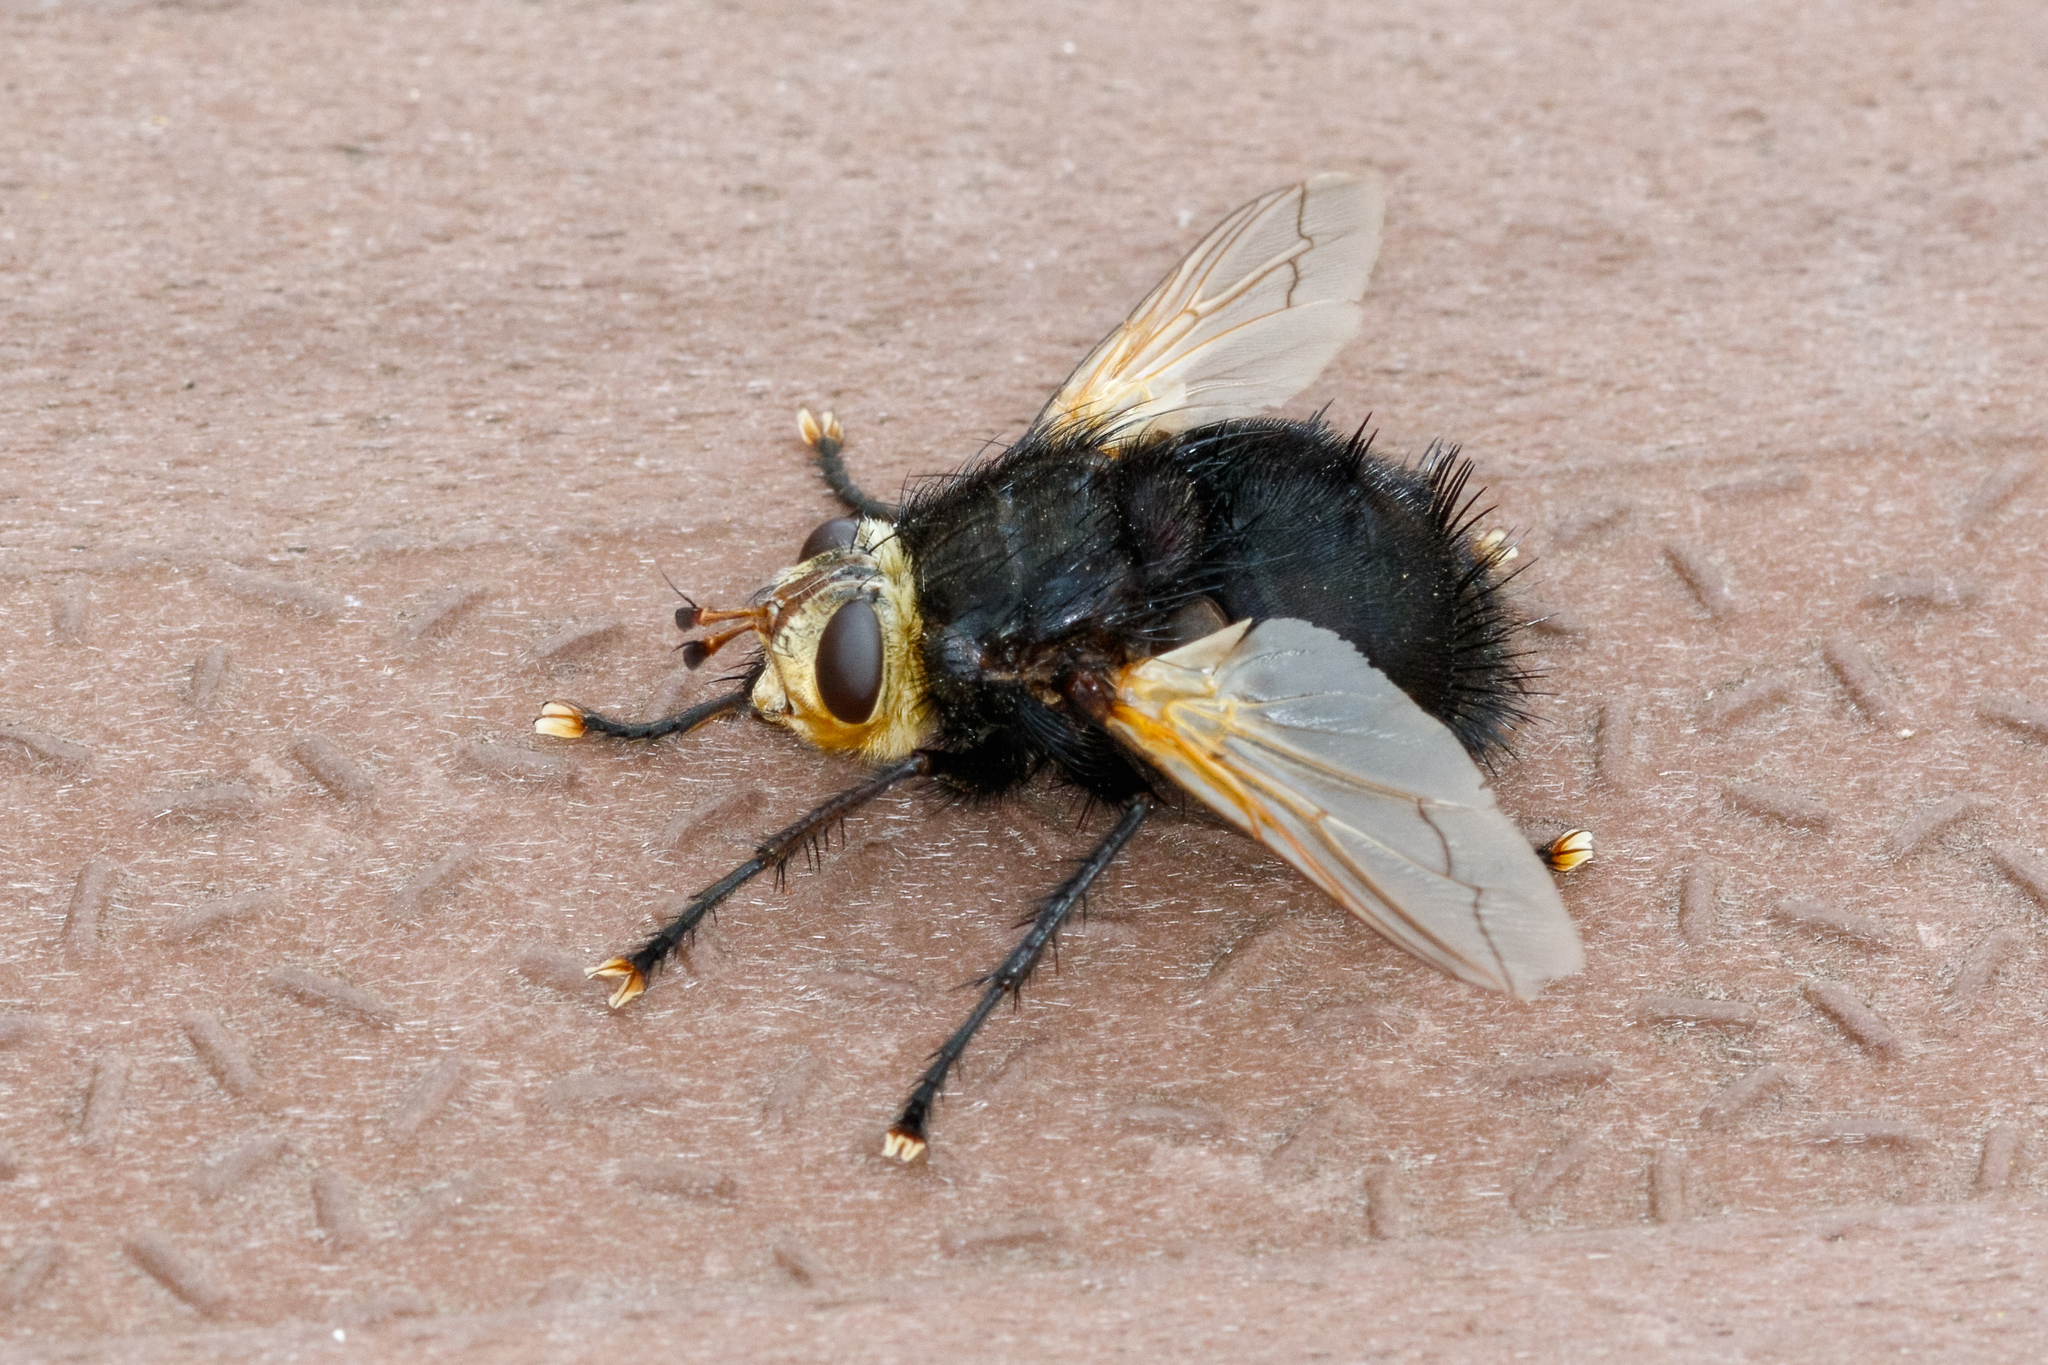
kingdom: Animalia
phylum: Arthropoda
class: Insecta
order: Diptera
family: Tachinidae
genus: Tachina
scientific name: Tachina grossa
